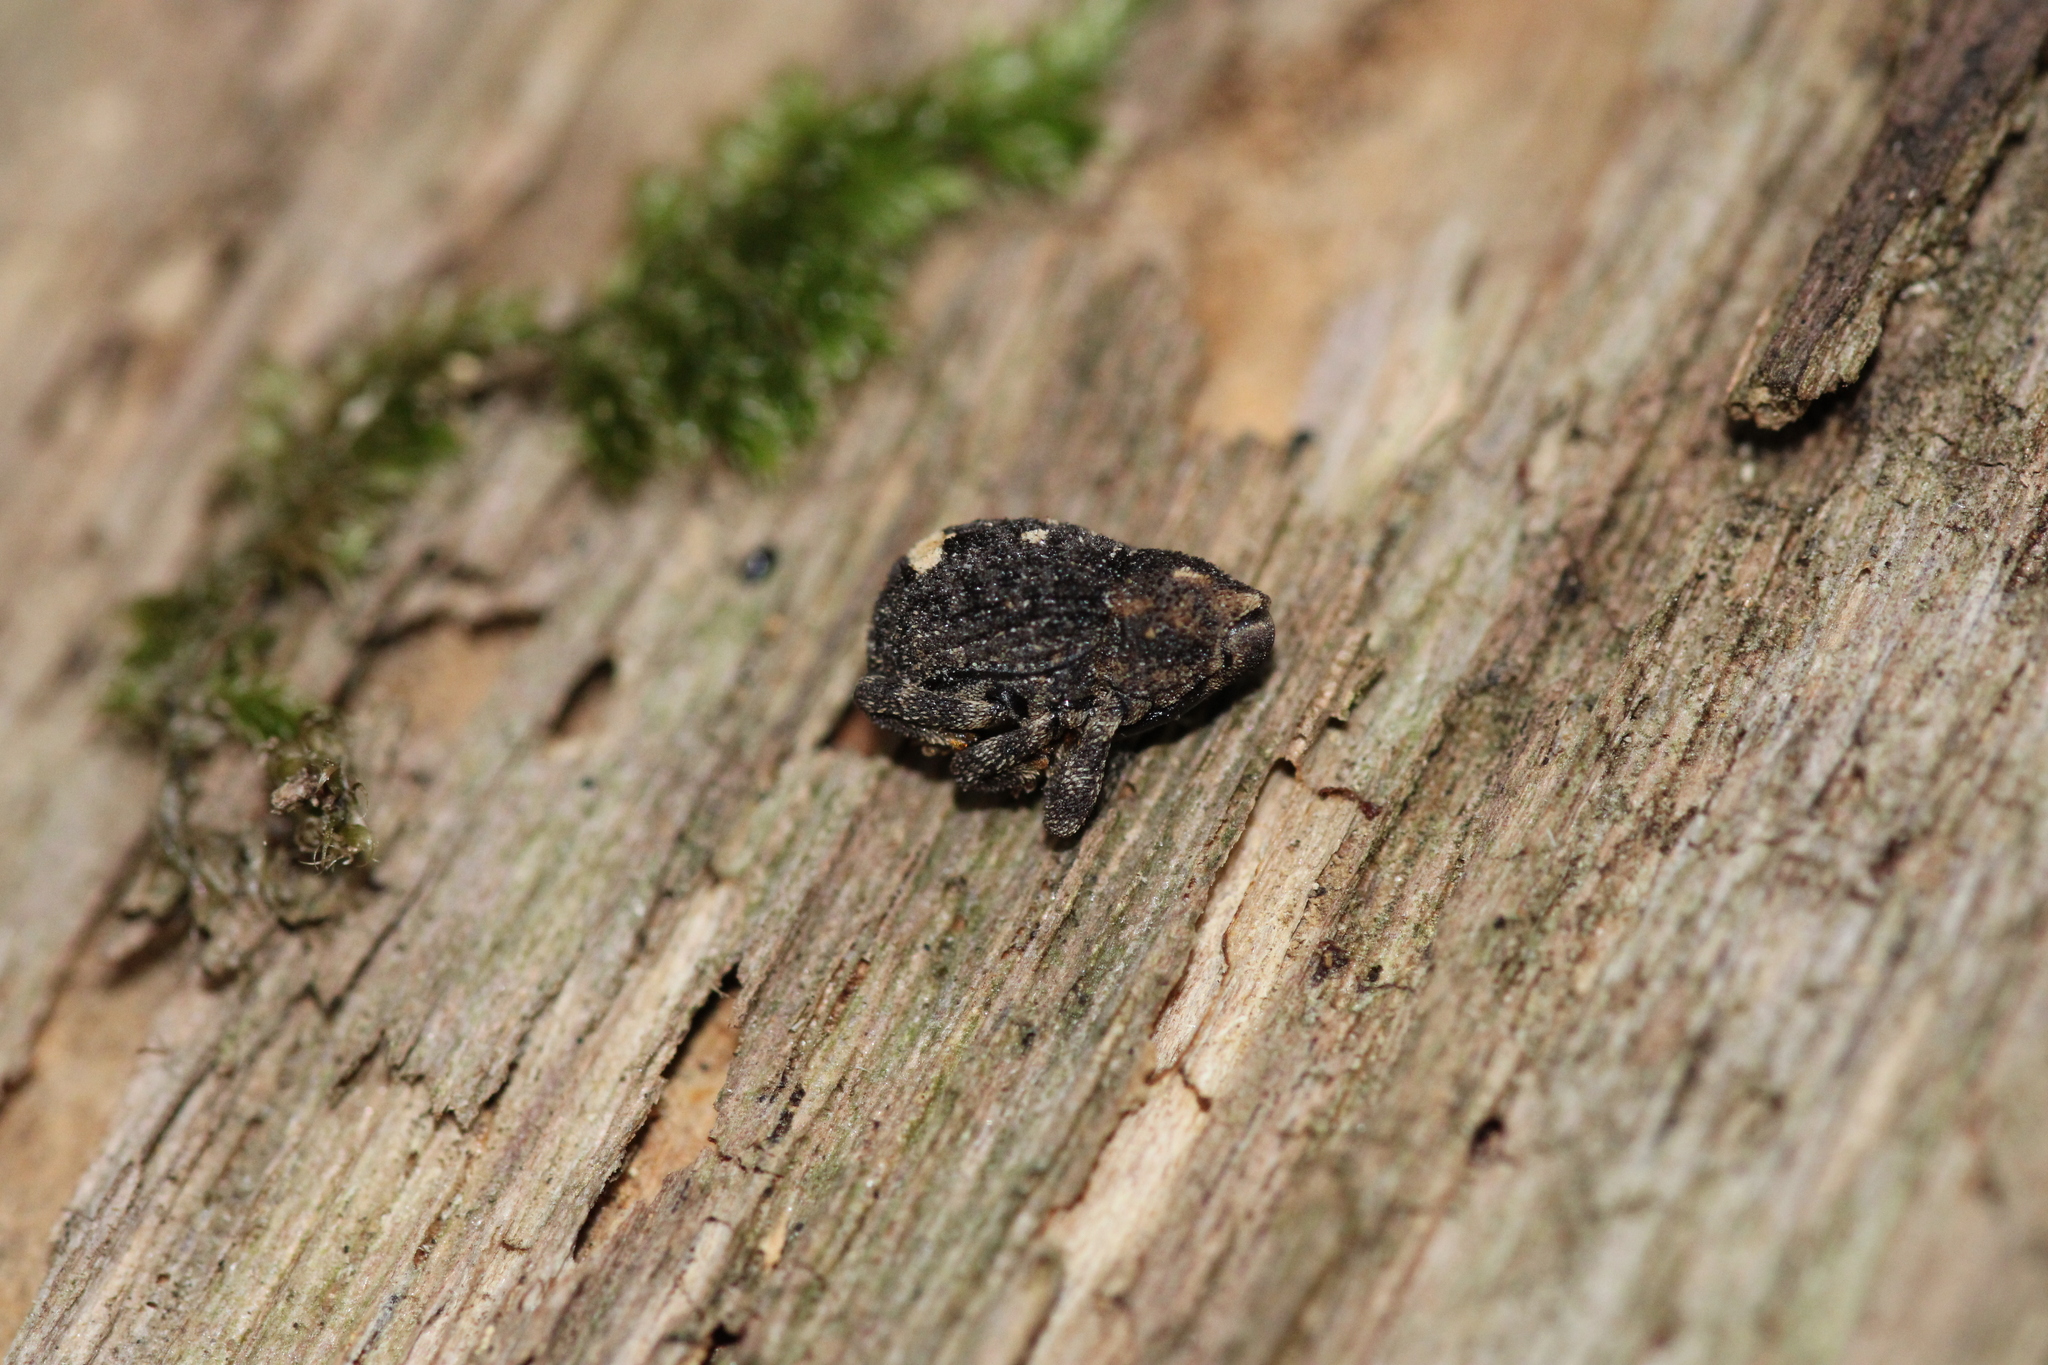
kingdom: Animalia
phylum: Arthropoda
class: Insecta
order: Coleoptera
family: Curculionidae
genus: Echinodera
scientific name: Echinodera hypocrita
